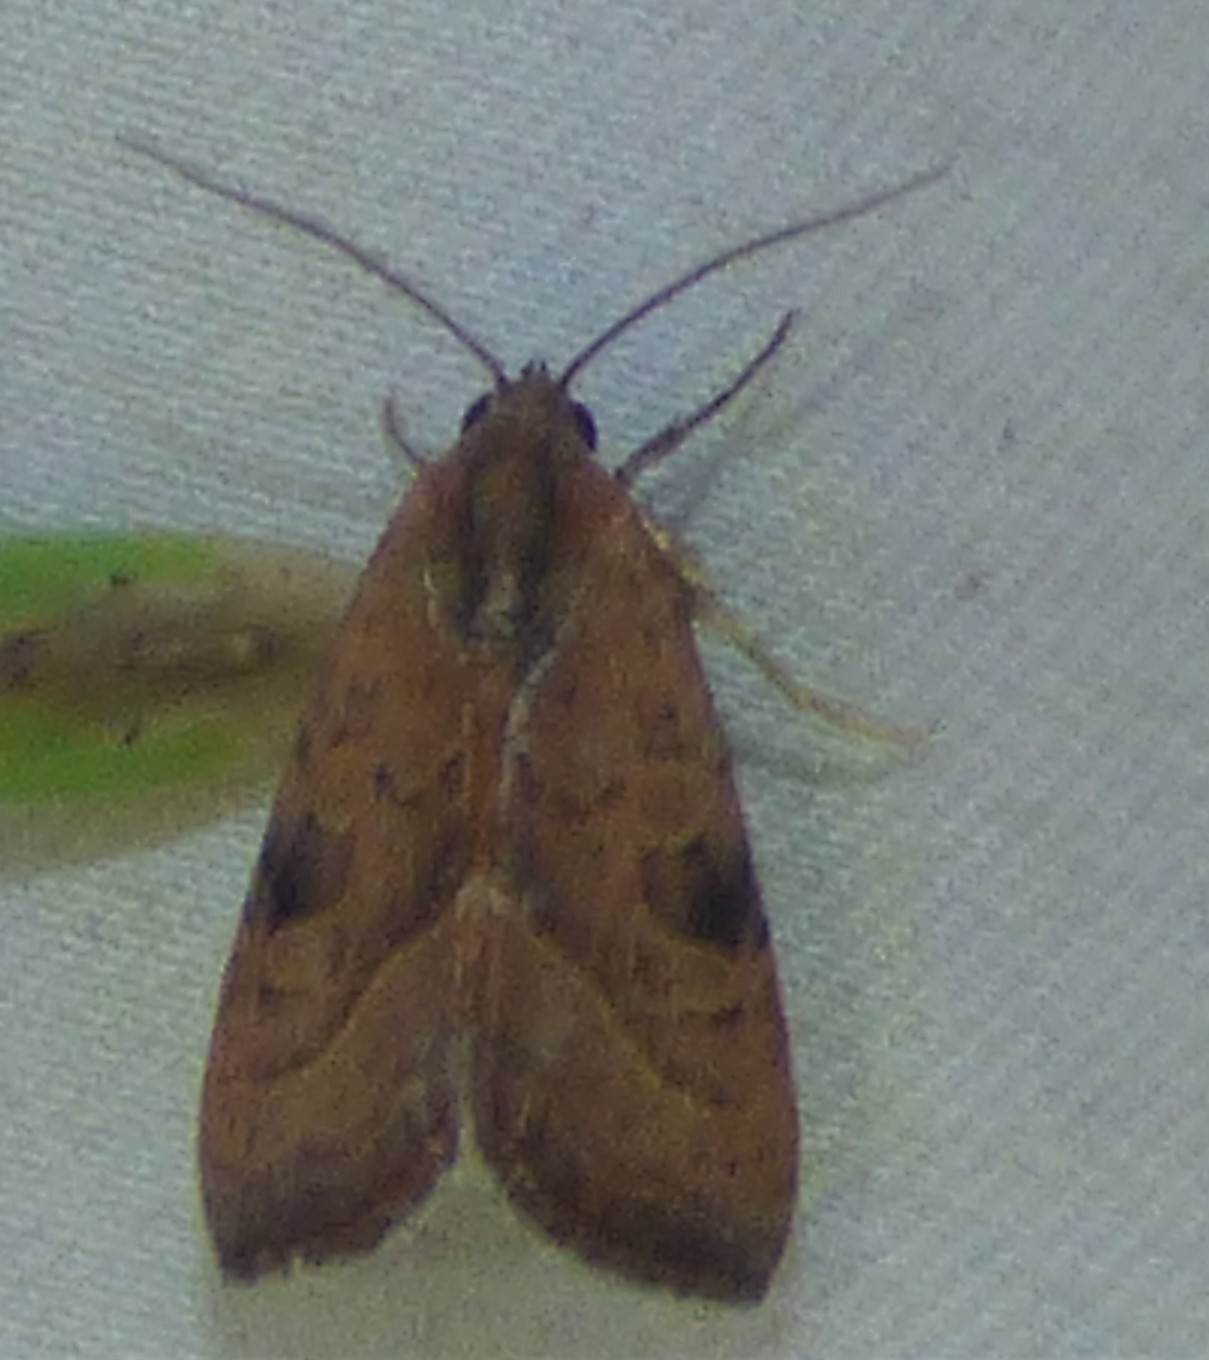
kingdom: Animalia
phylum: Arthropoda
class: Insecta
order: Lepidoptera
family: Noctuidae
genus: Galgula
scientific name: Galgula partita
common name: Wedgeling
